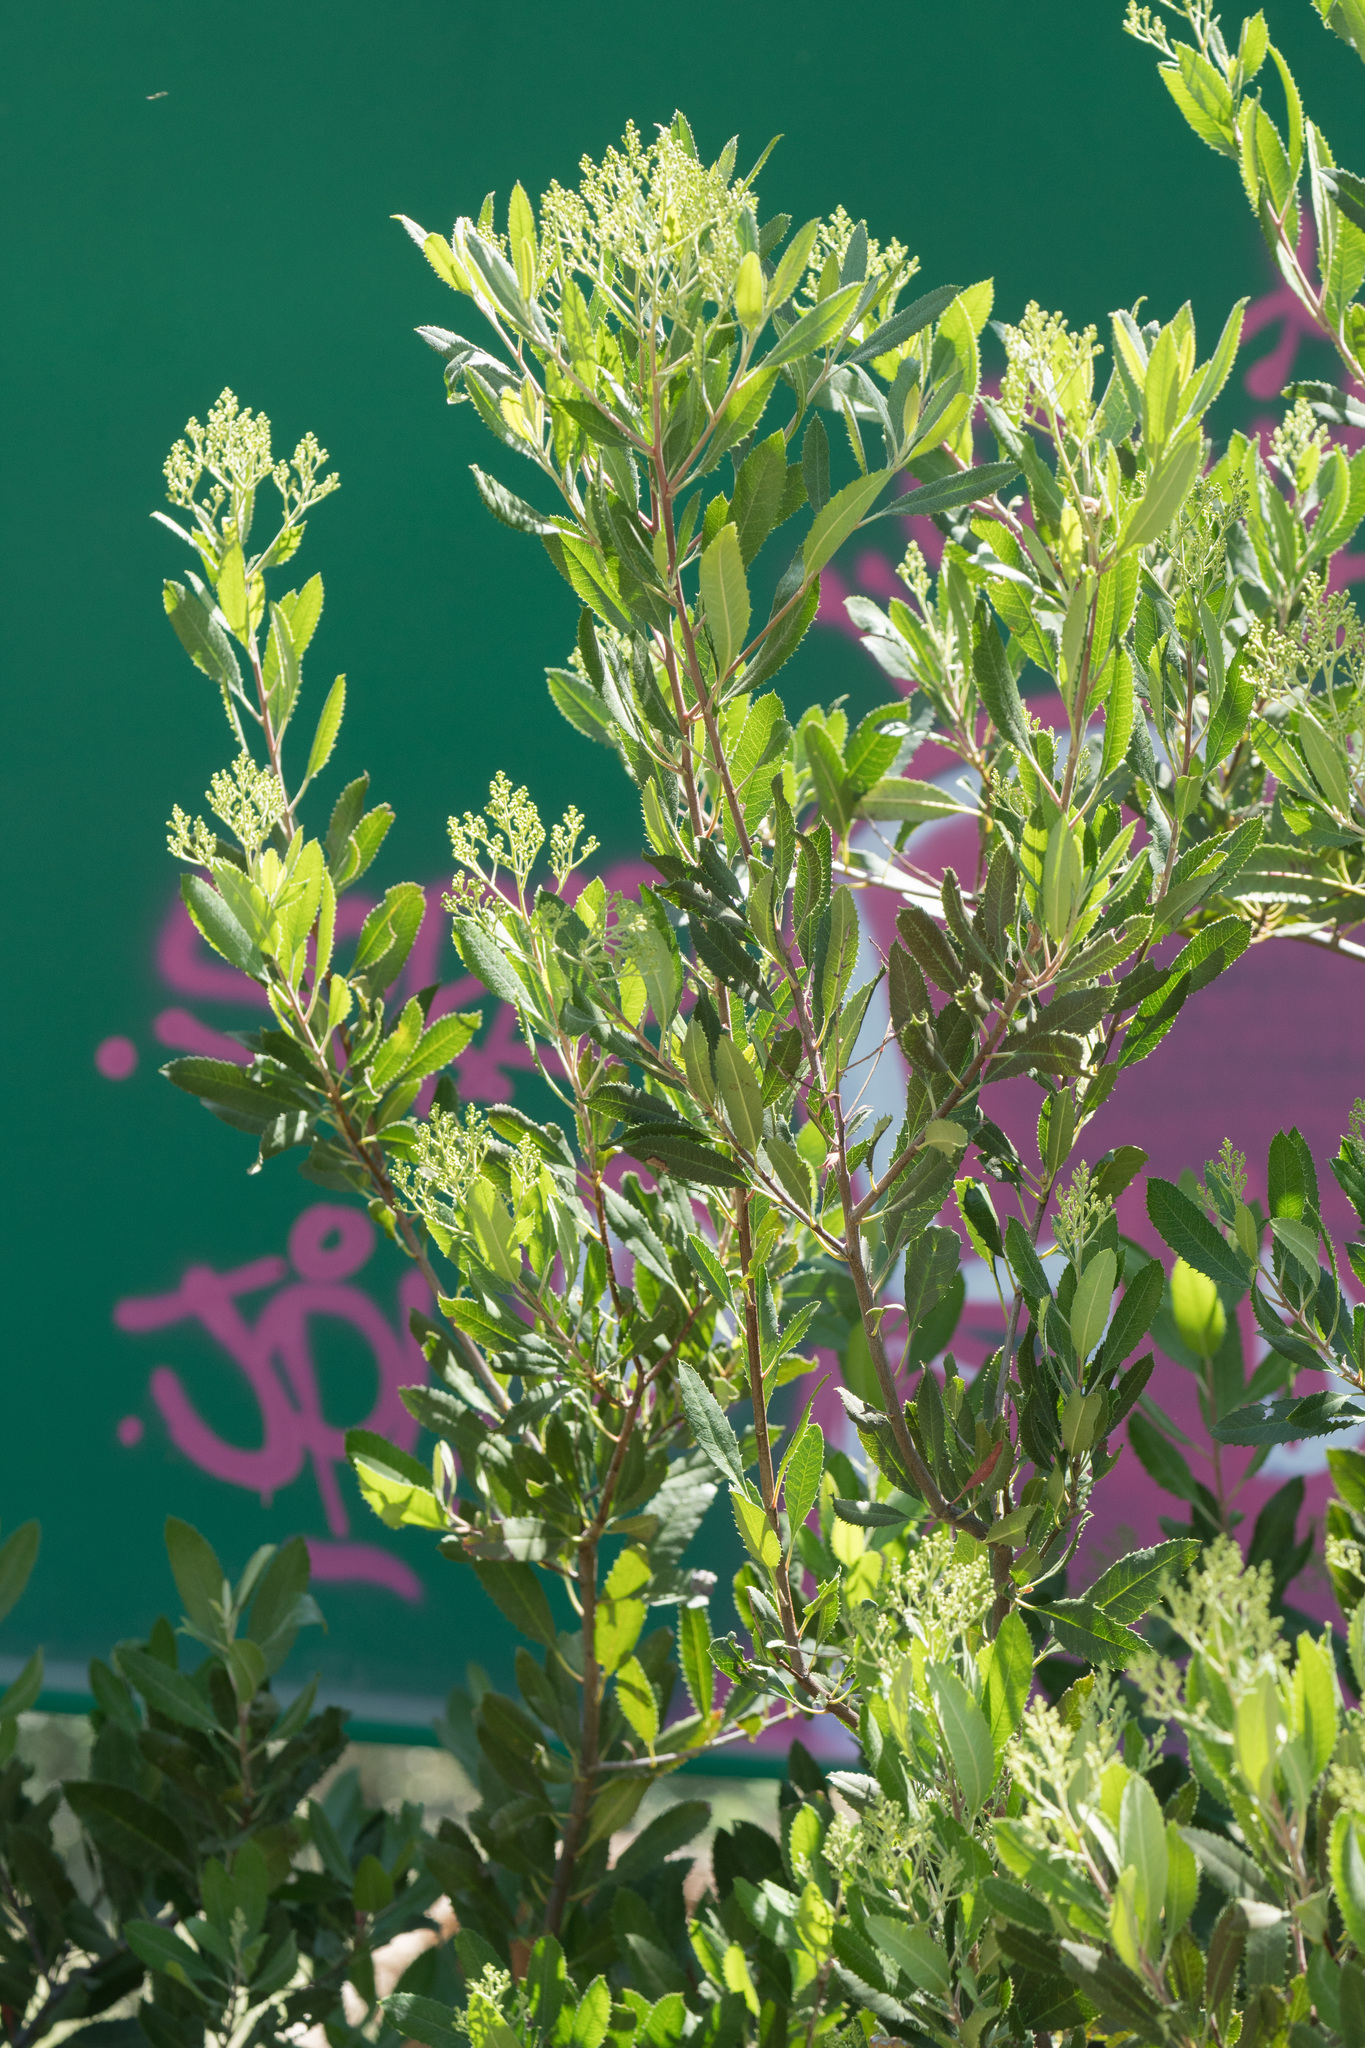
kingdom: Plantae
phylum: Tracheophyta
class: Magnoliopsida
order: Rosales
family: Rosaceae
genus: Heteromeles
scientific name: Heteromeles arbutifolia
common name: California-holly
